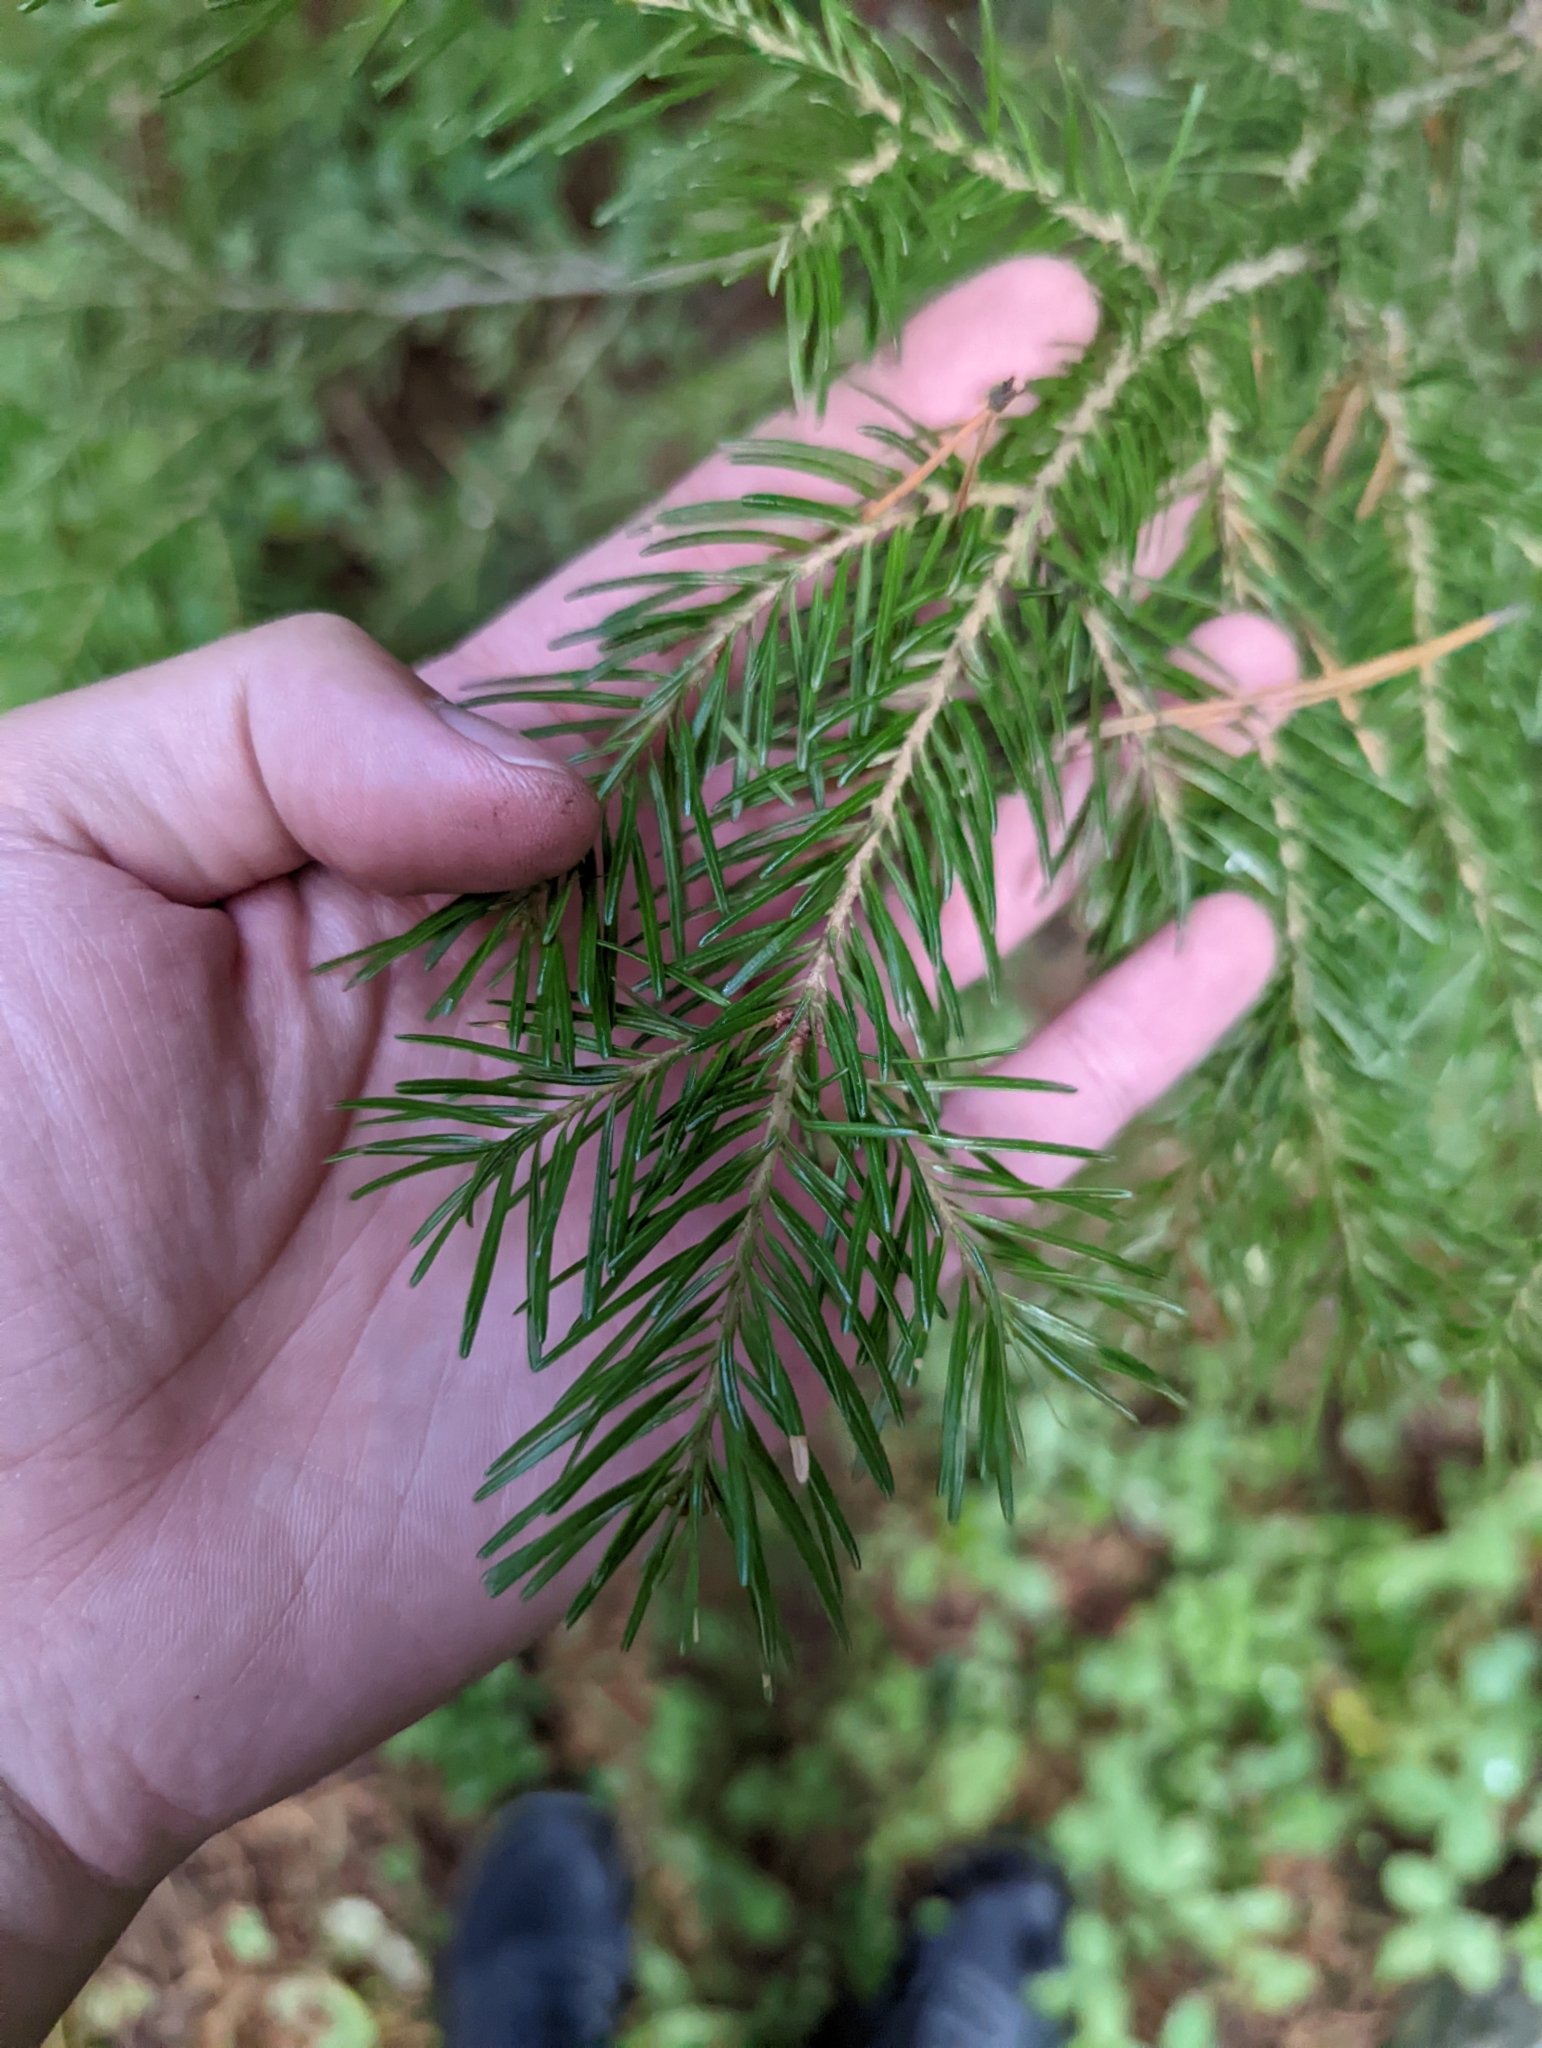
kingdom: Plantae
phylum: Tracheophyta
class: Pinopsida
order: Pinales
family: Pinaceae
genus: Abies
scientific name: Abies lasiocarpa
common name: Subalpine fir
